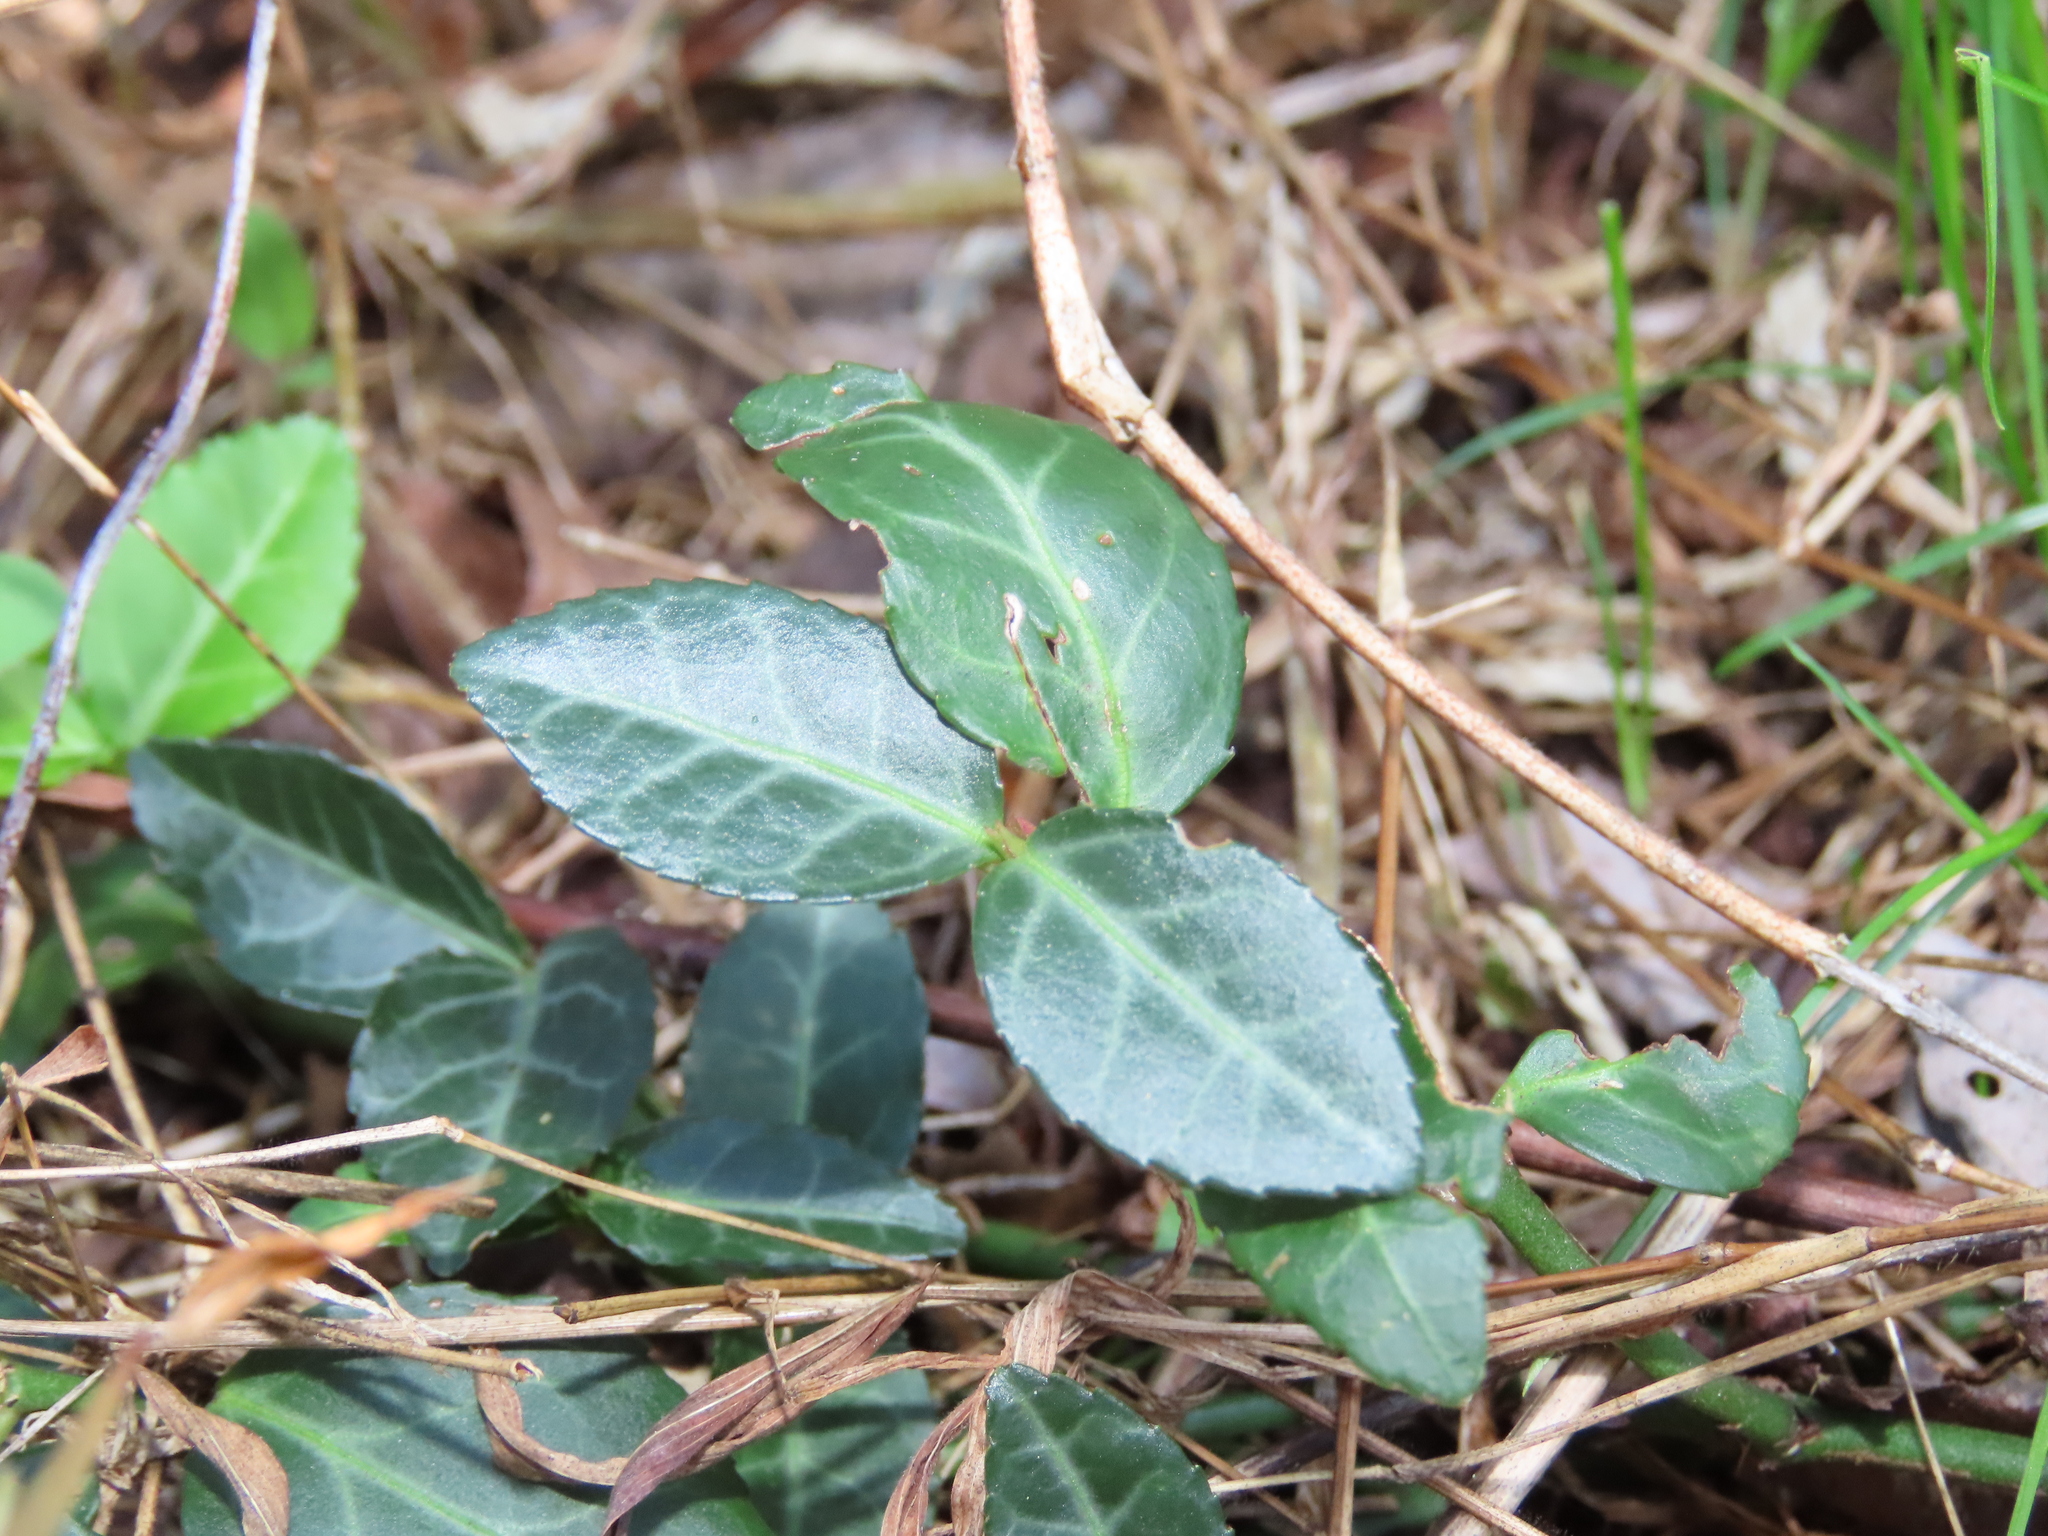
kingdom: Plantae
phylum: Tracheophyta
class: Magnoliopsida
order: Celastrales
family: Celastraceae
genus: Euonymus
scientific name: Euonymus fortunei
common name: Climbing euonymus
